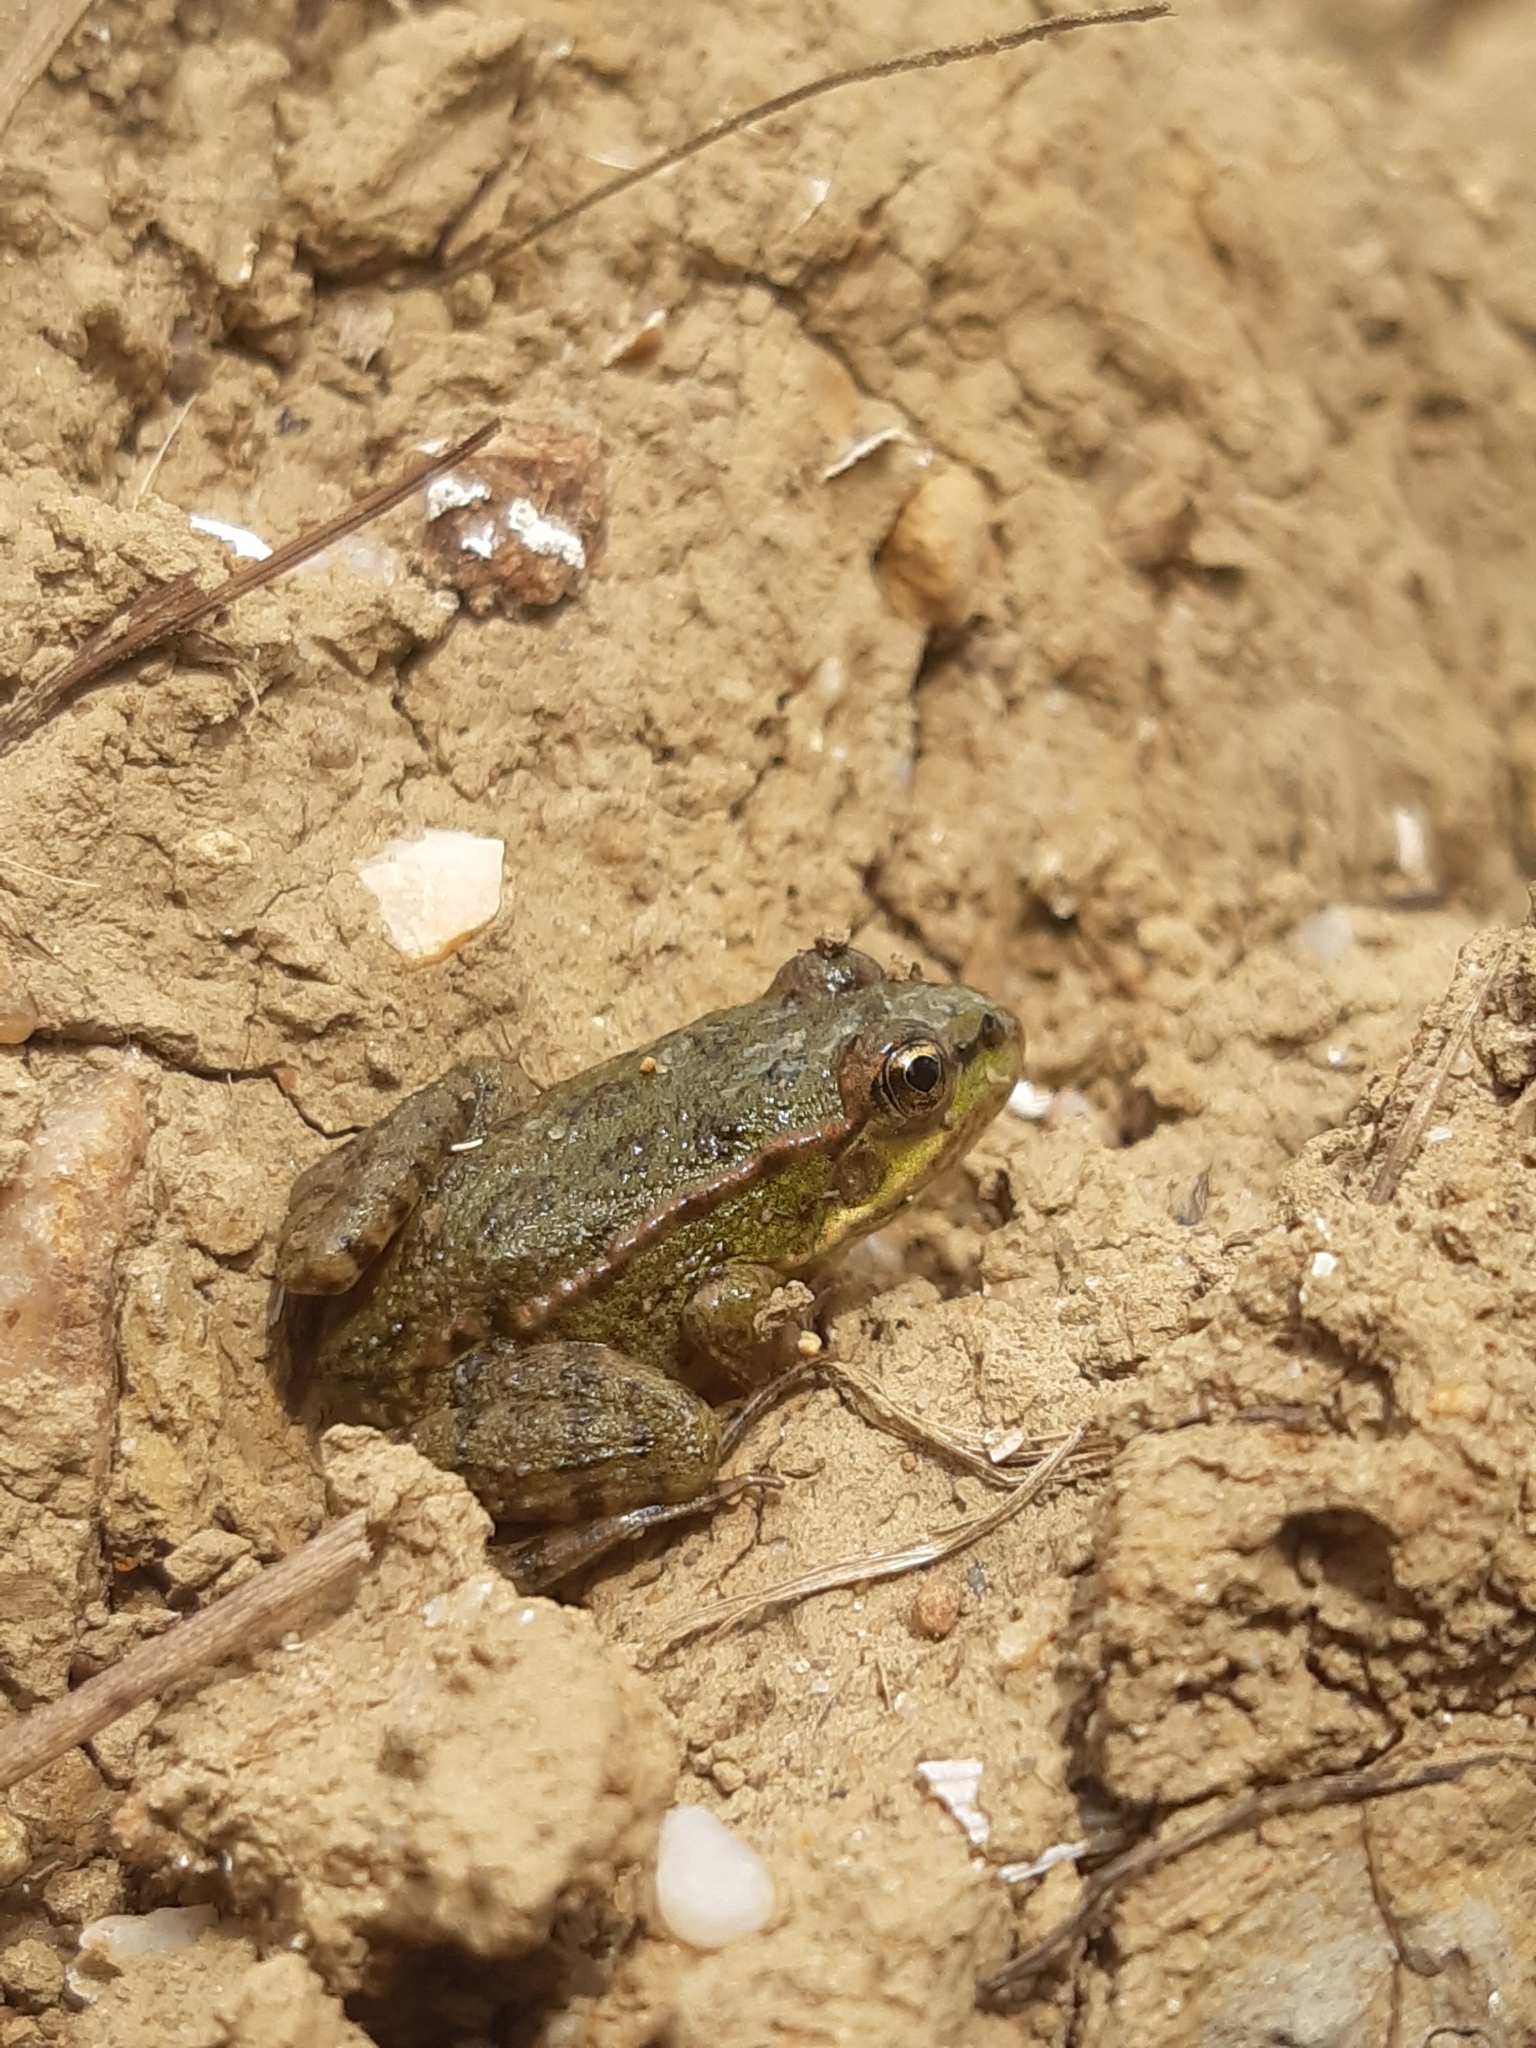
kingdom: Animalia
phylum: Chordata
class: Amphibia
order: Anura
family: Ranidae
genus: Pelophylax
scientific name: Pelophylax
